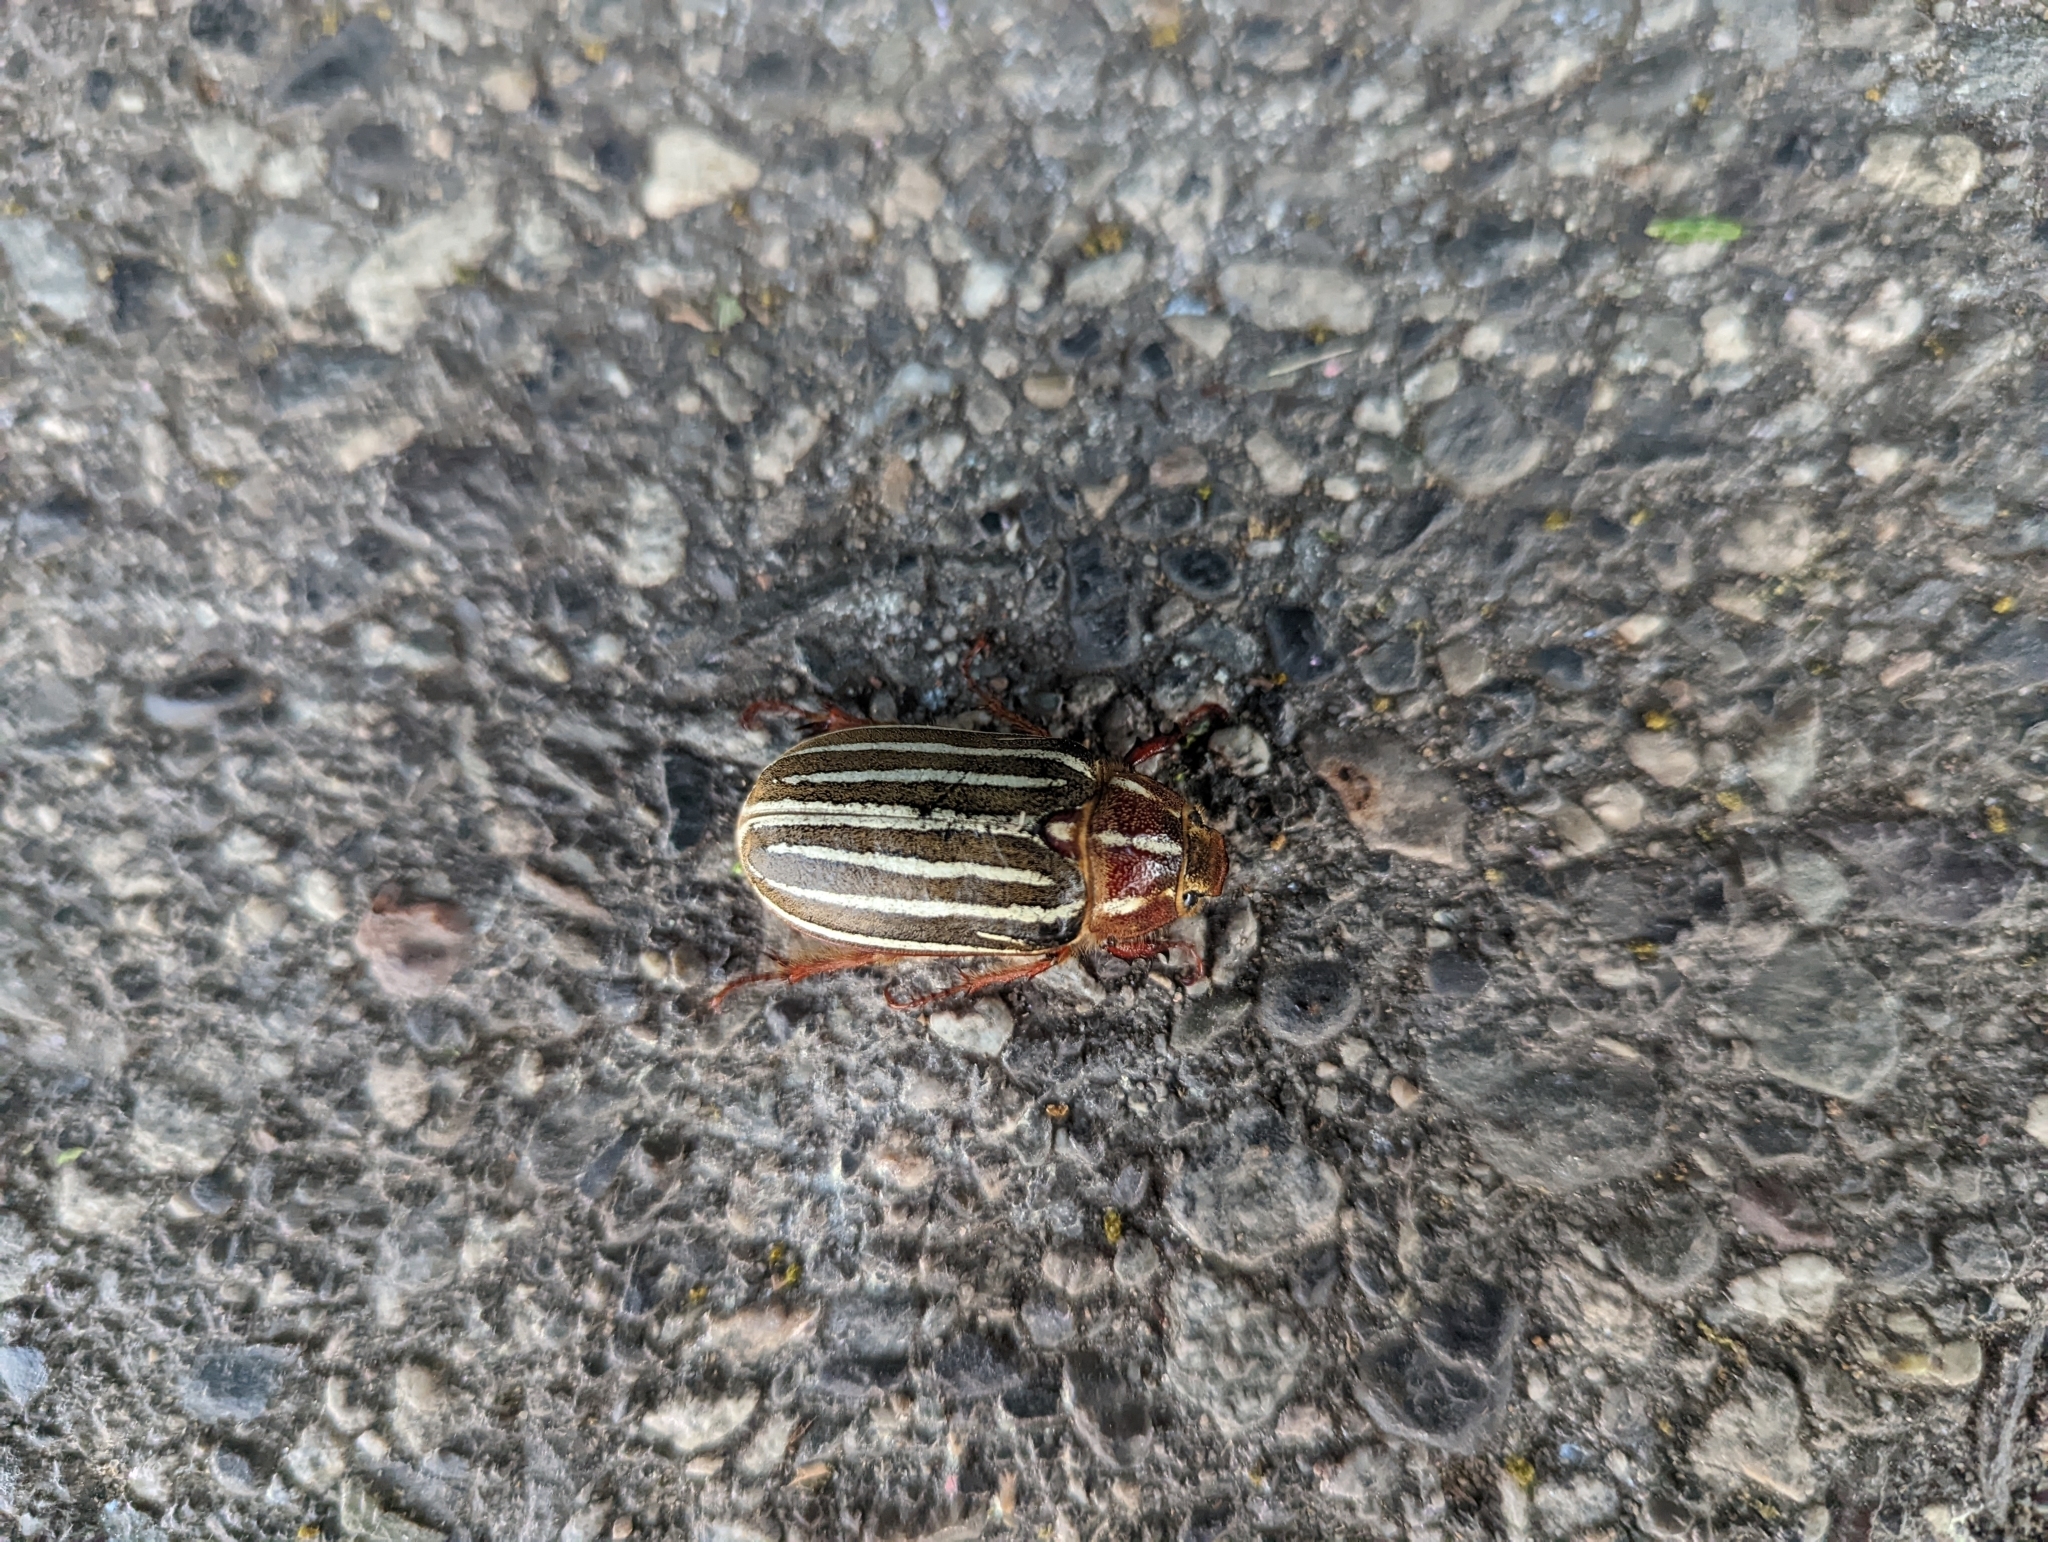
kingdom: Animalia
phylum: Arthropoda
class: Insecta
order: Coleoptera
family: Scarabaeidae
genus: Polyphylla
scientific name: Polyphylla crinita
